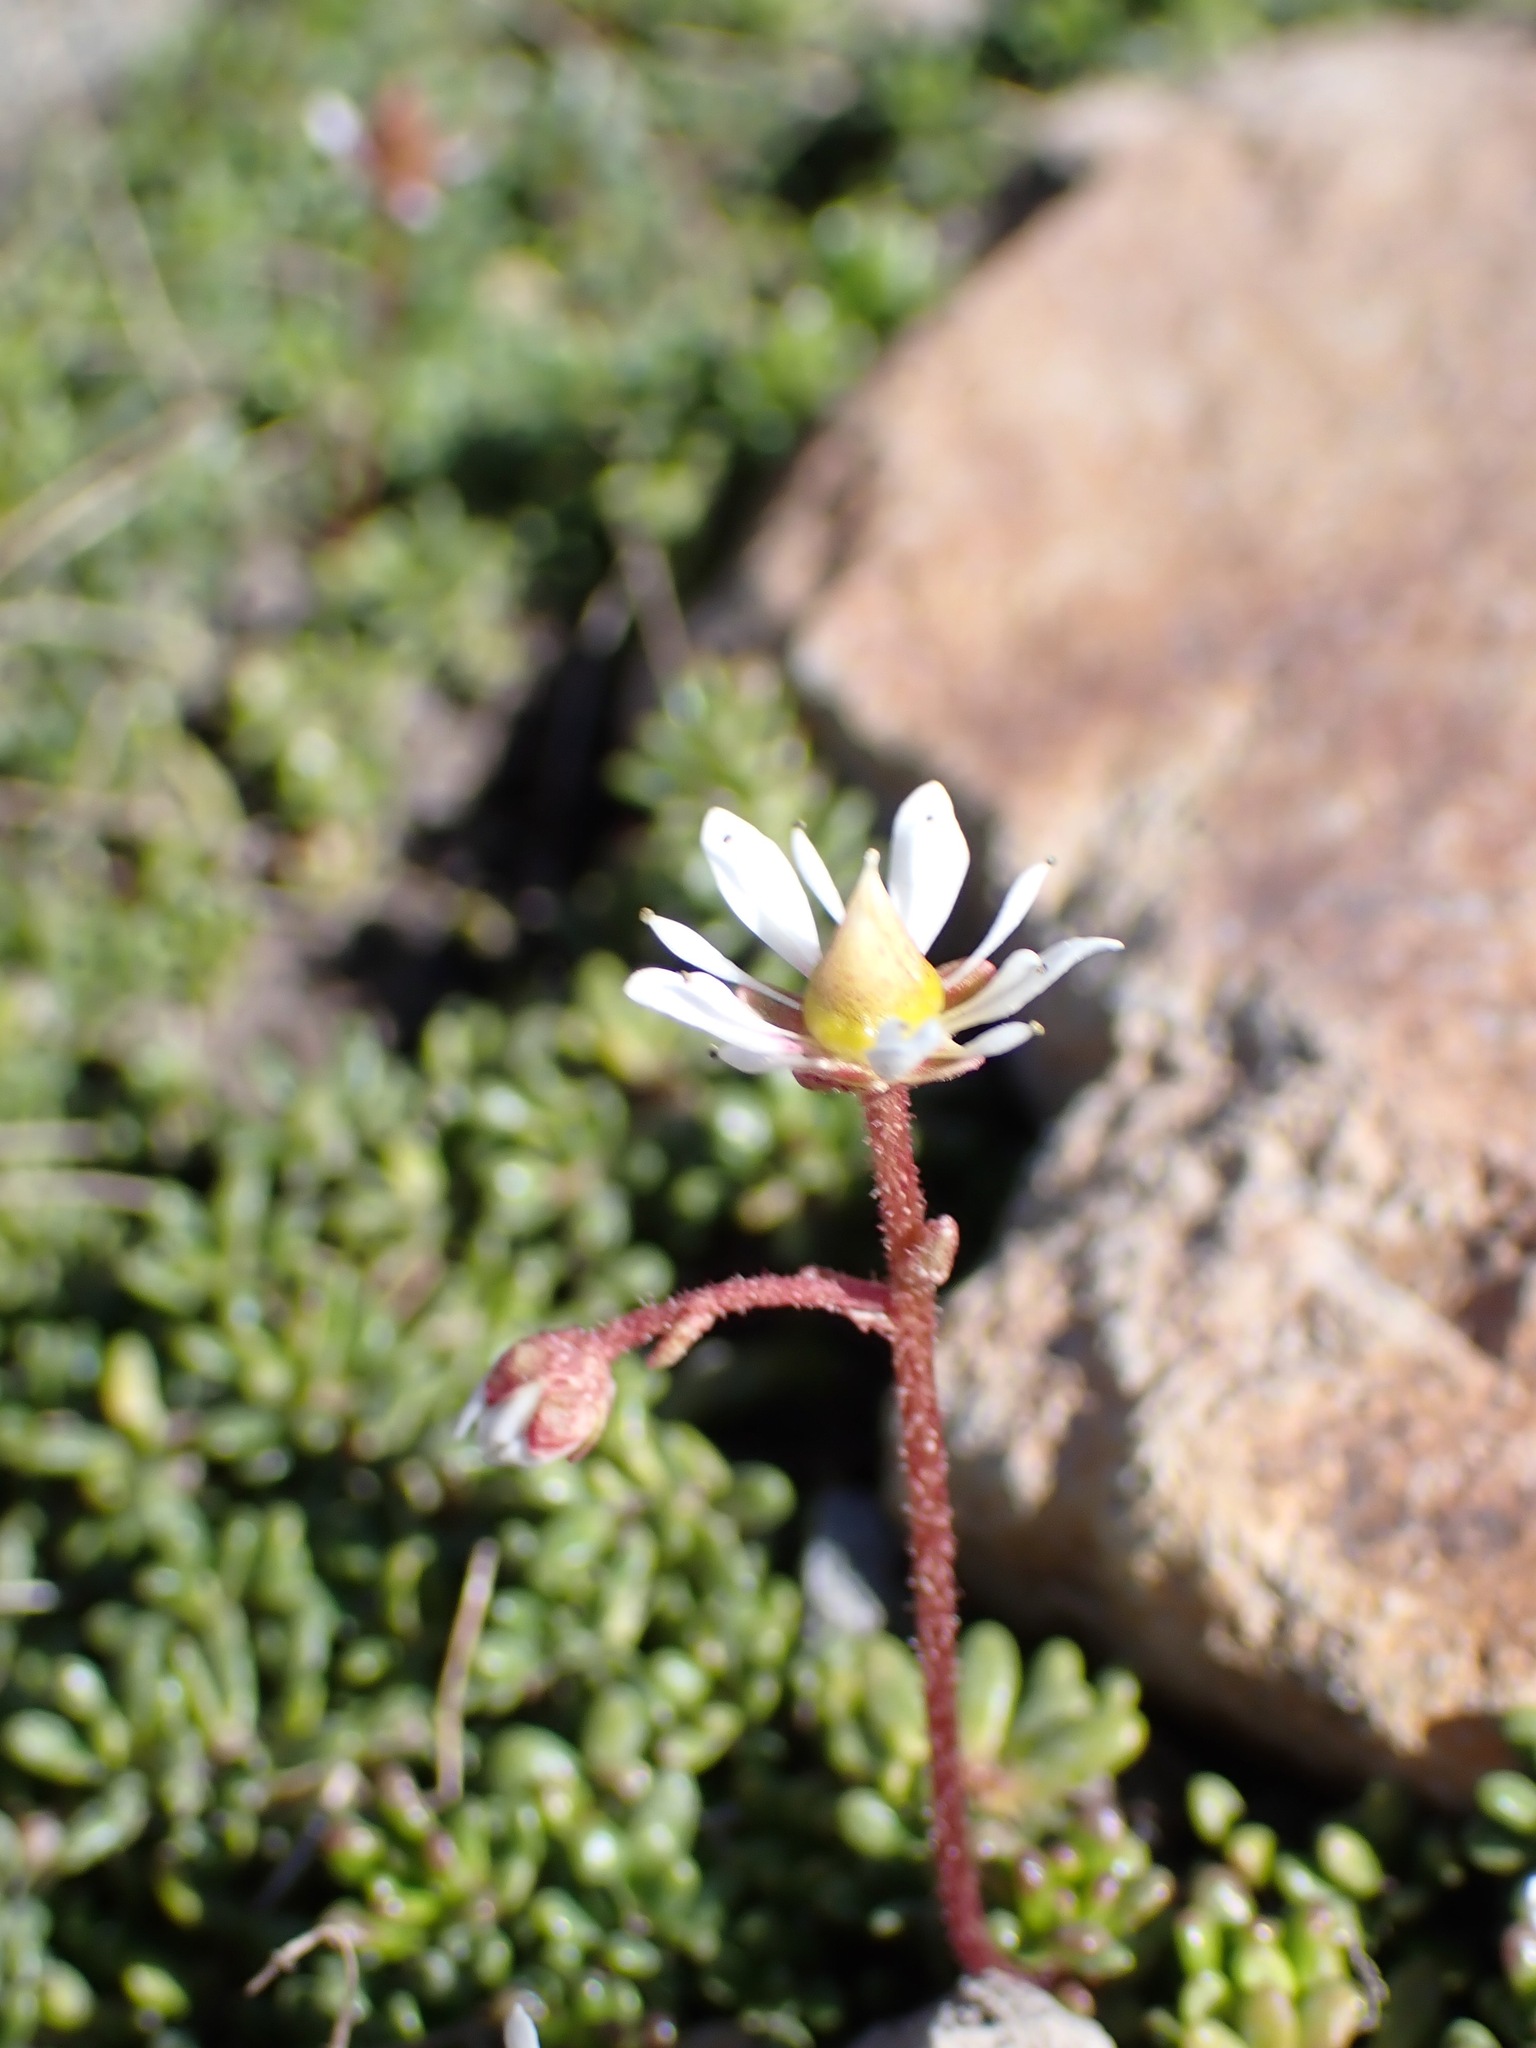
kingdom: Plantae
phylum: Tracheophyta
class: Magnoliopsida
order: Saxifragales
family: Saxifragaceae
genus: Micranthes
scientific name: Micranthes tolmiei
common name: Tolmie's saxifrage
